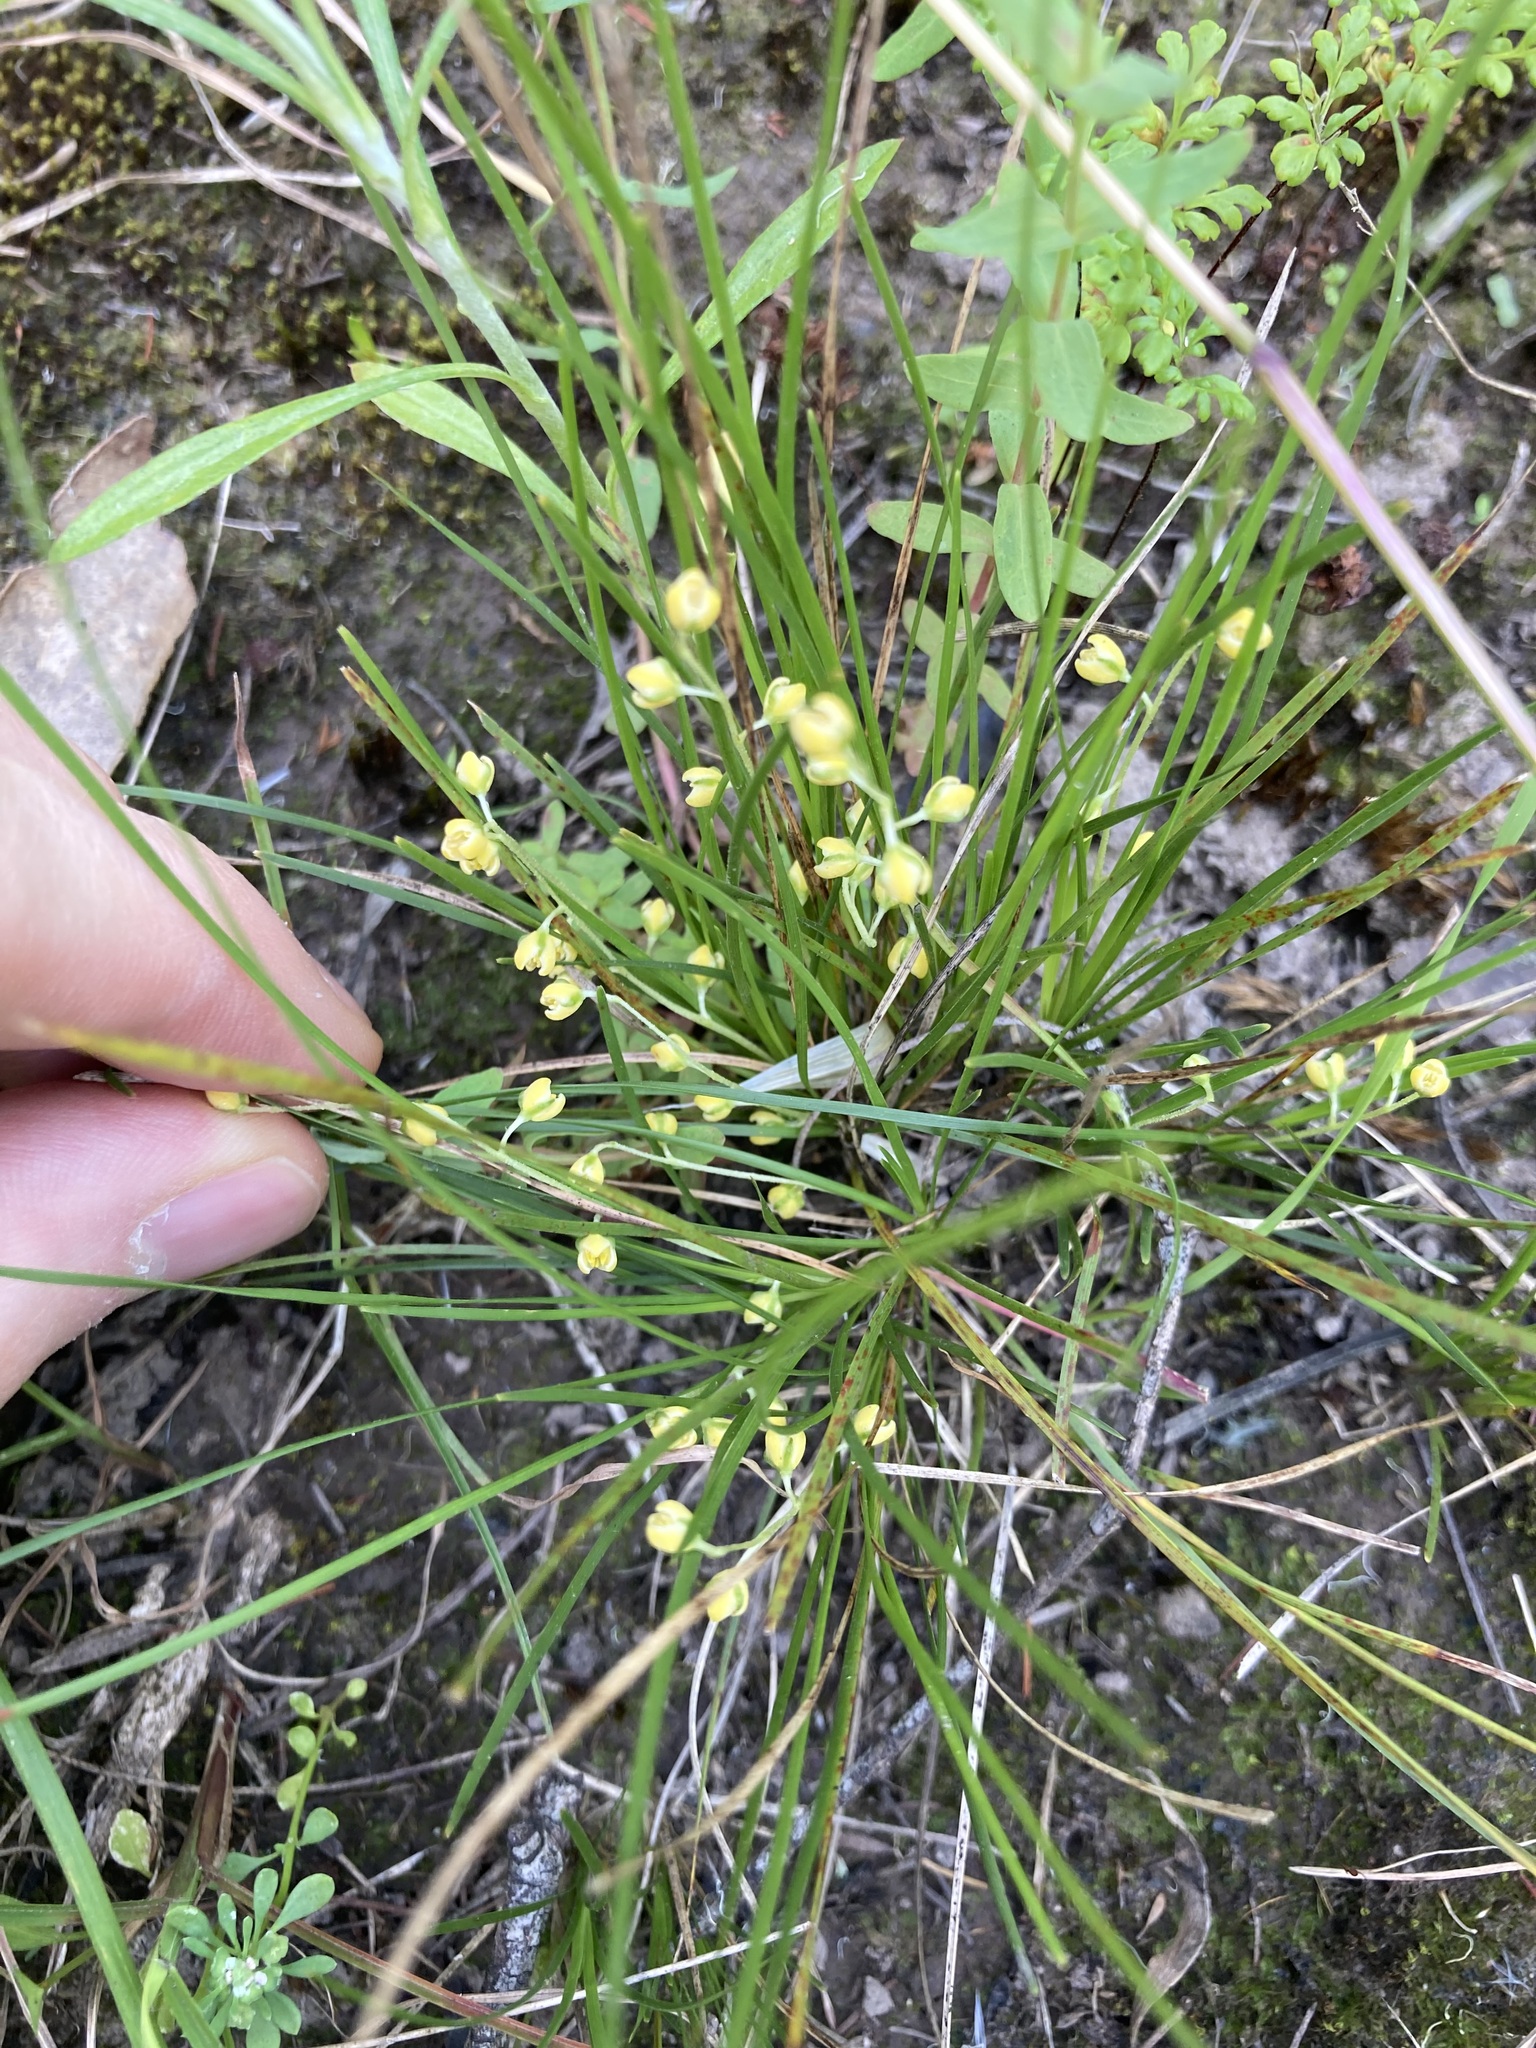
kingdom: Plantae
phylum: Tracheophyta
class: Liliopsida
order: Asparagales
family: Asparagaceae
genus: Lomandra
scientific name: Lomandra filiformis
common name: Wattle mat-rush
